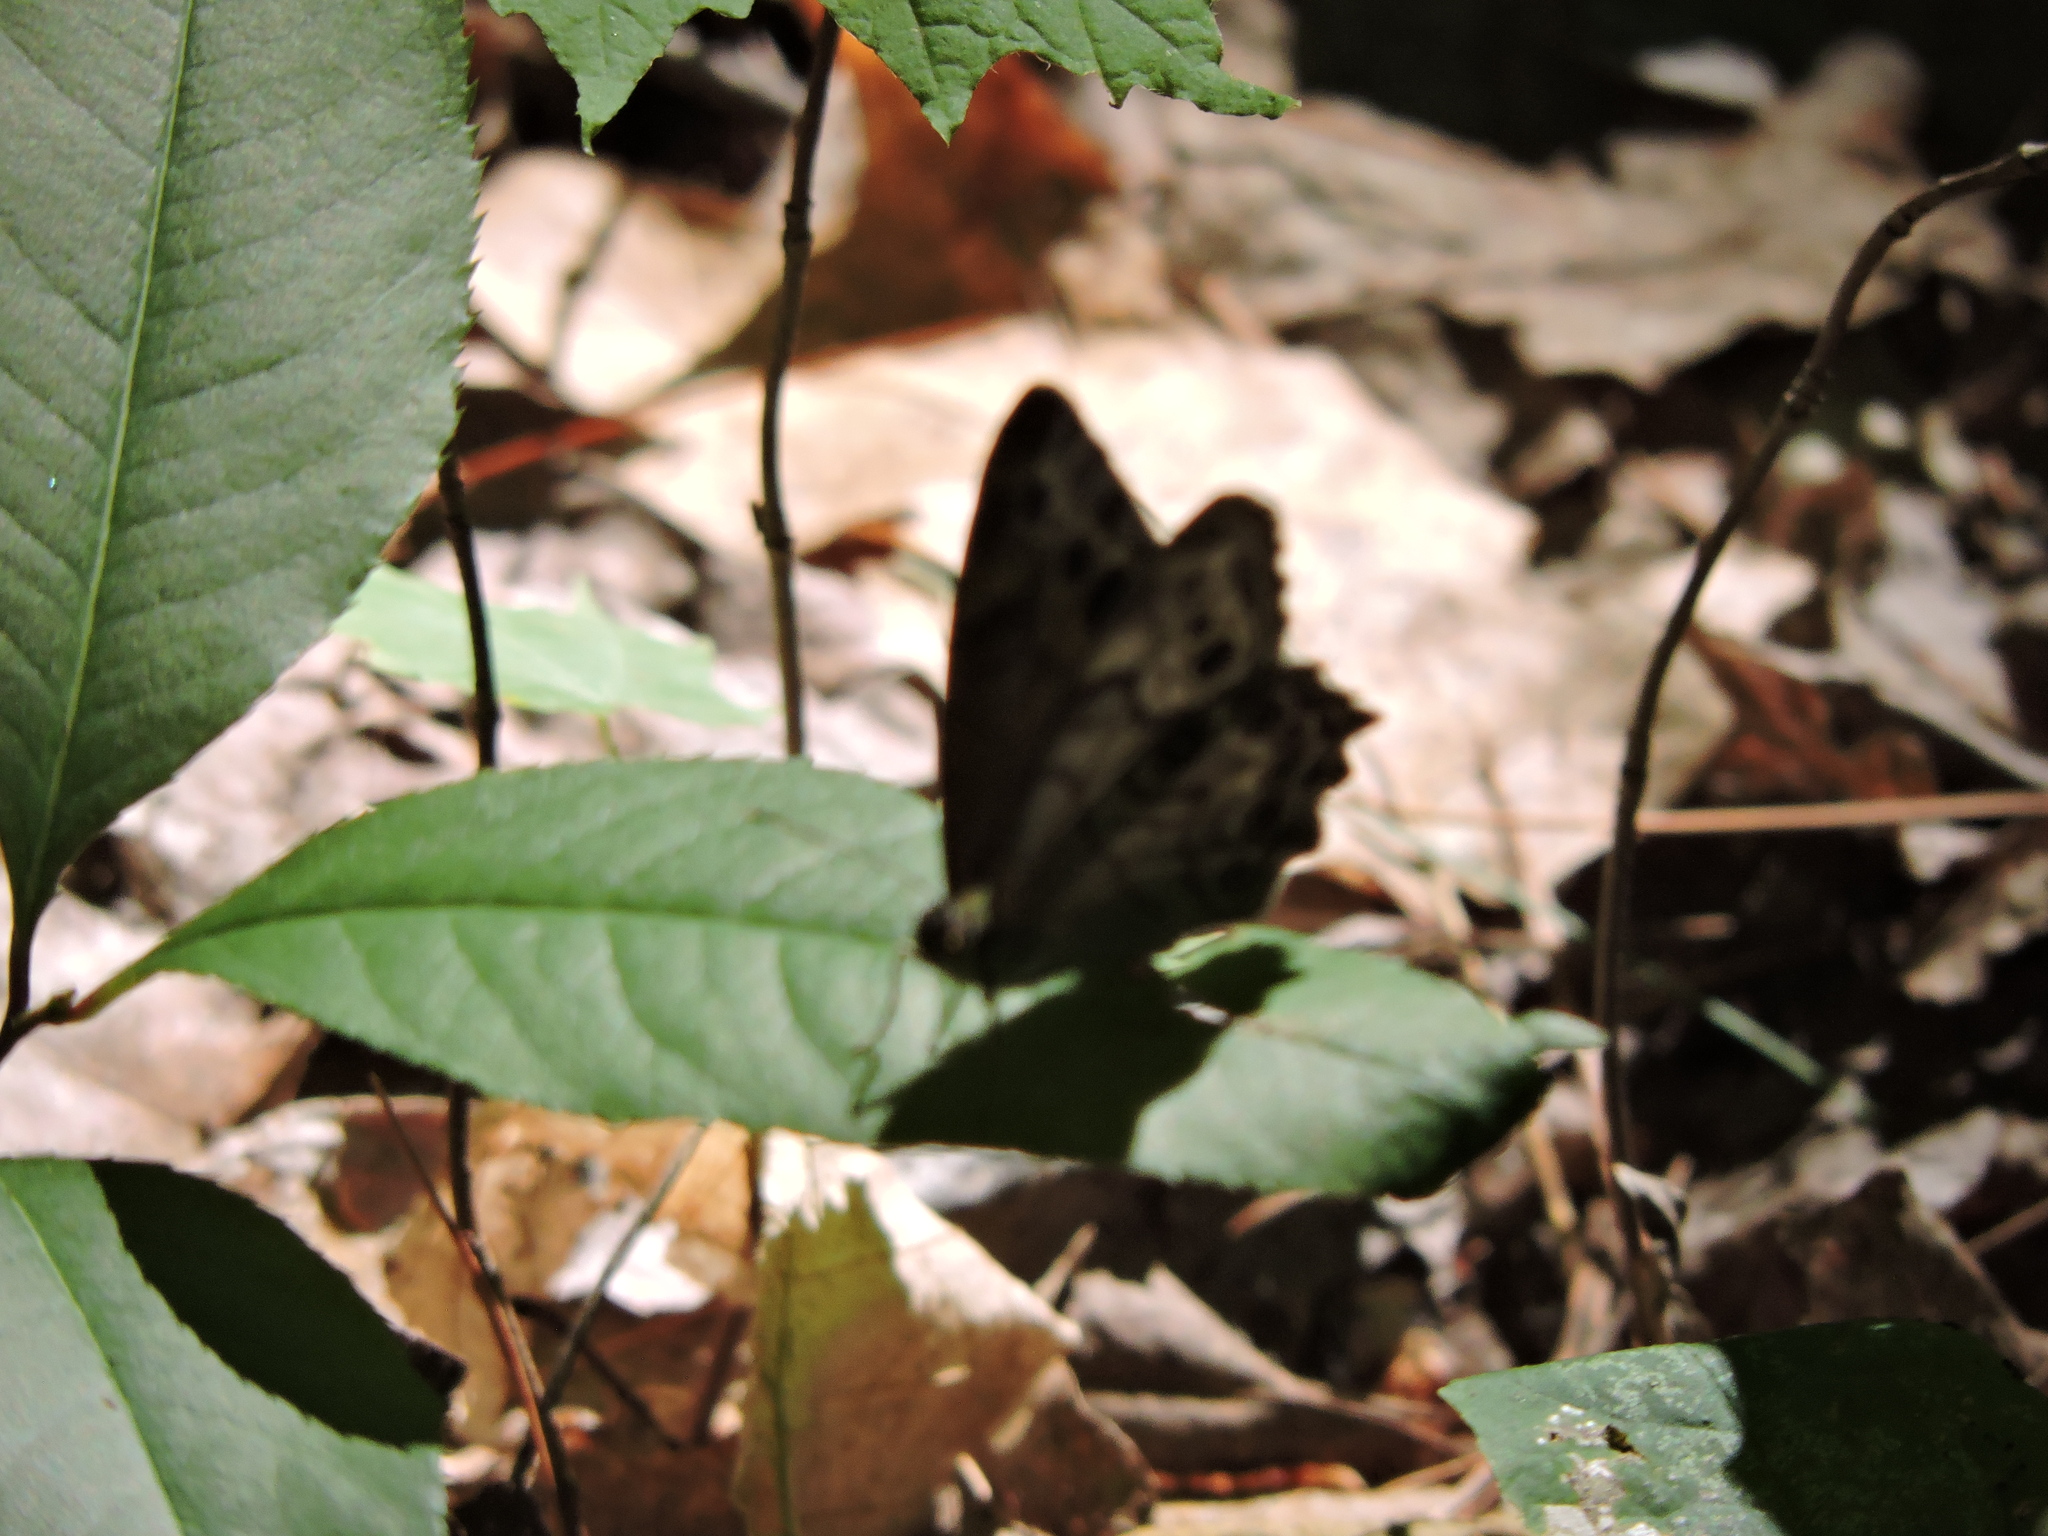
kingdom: Animalia
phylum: Arthropoda
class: Insecta
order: Lepidoptera
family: Nymphalidae
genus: Lethe
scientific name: Lethe anthedon
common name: Northern pearly-eye
